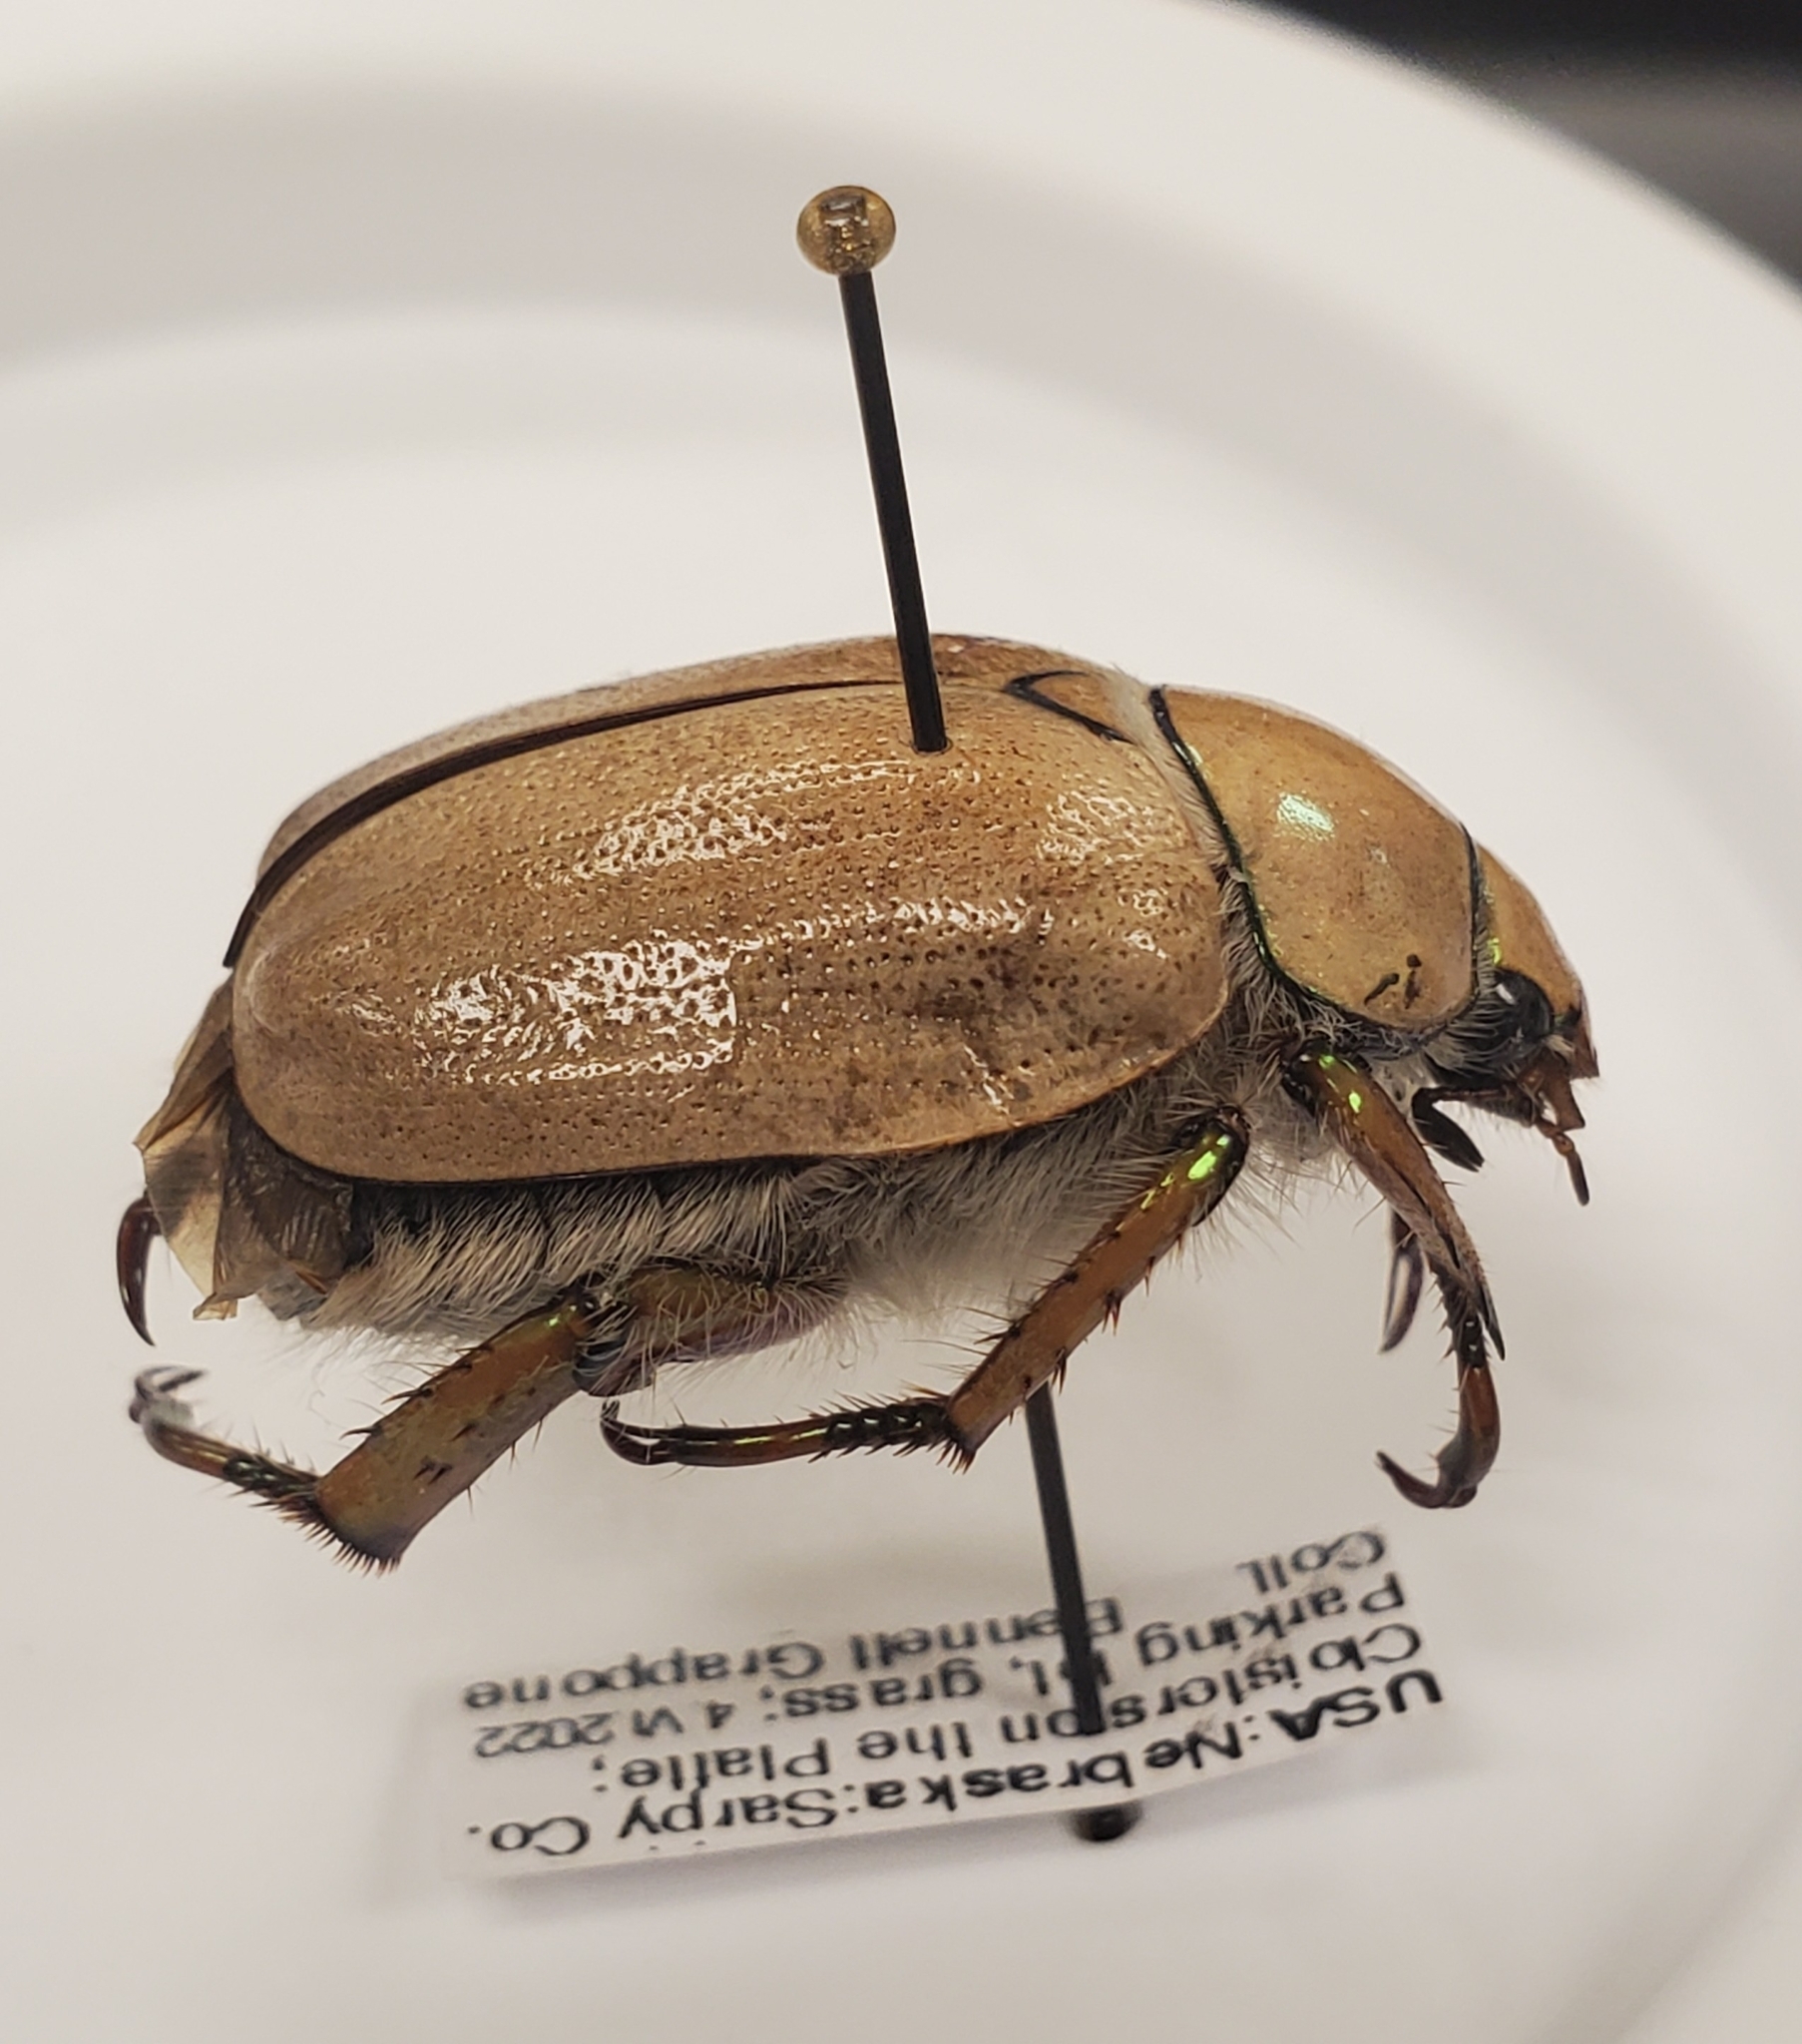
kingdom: Animalia
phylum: Arthropoda
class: Insecta
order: Coleoptera
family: Scarabaeidae
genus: Cotalpa
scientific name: Cotalpa lanigera
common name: Goldsmith beetle
